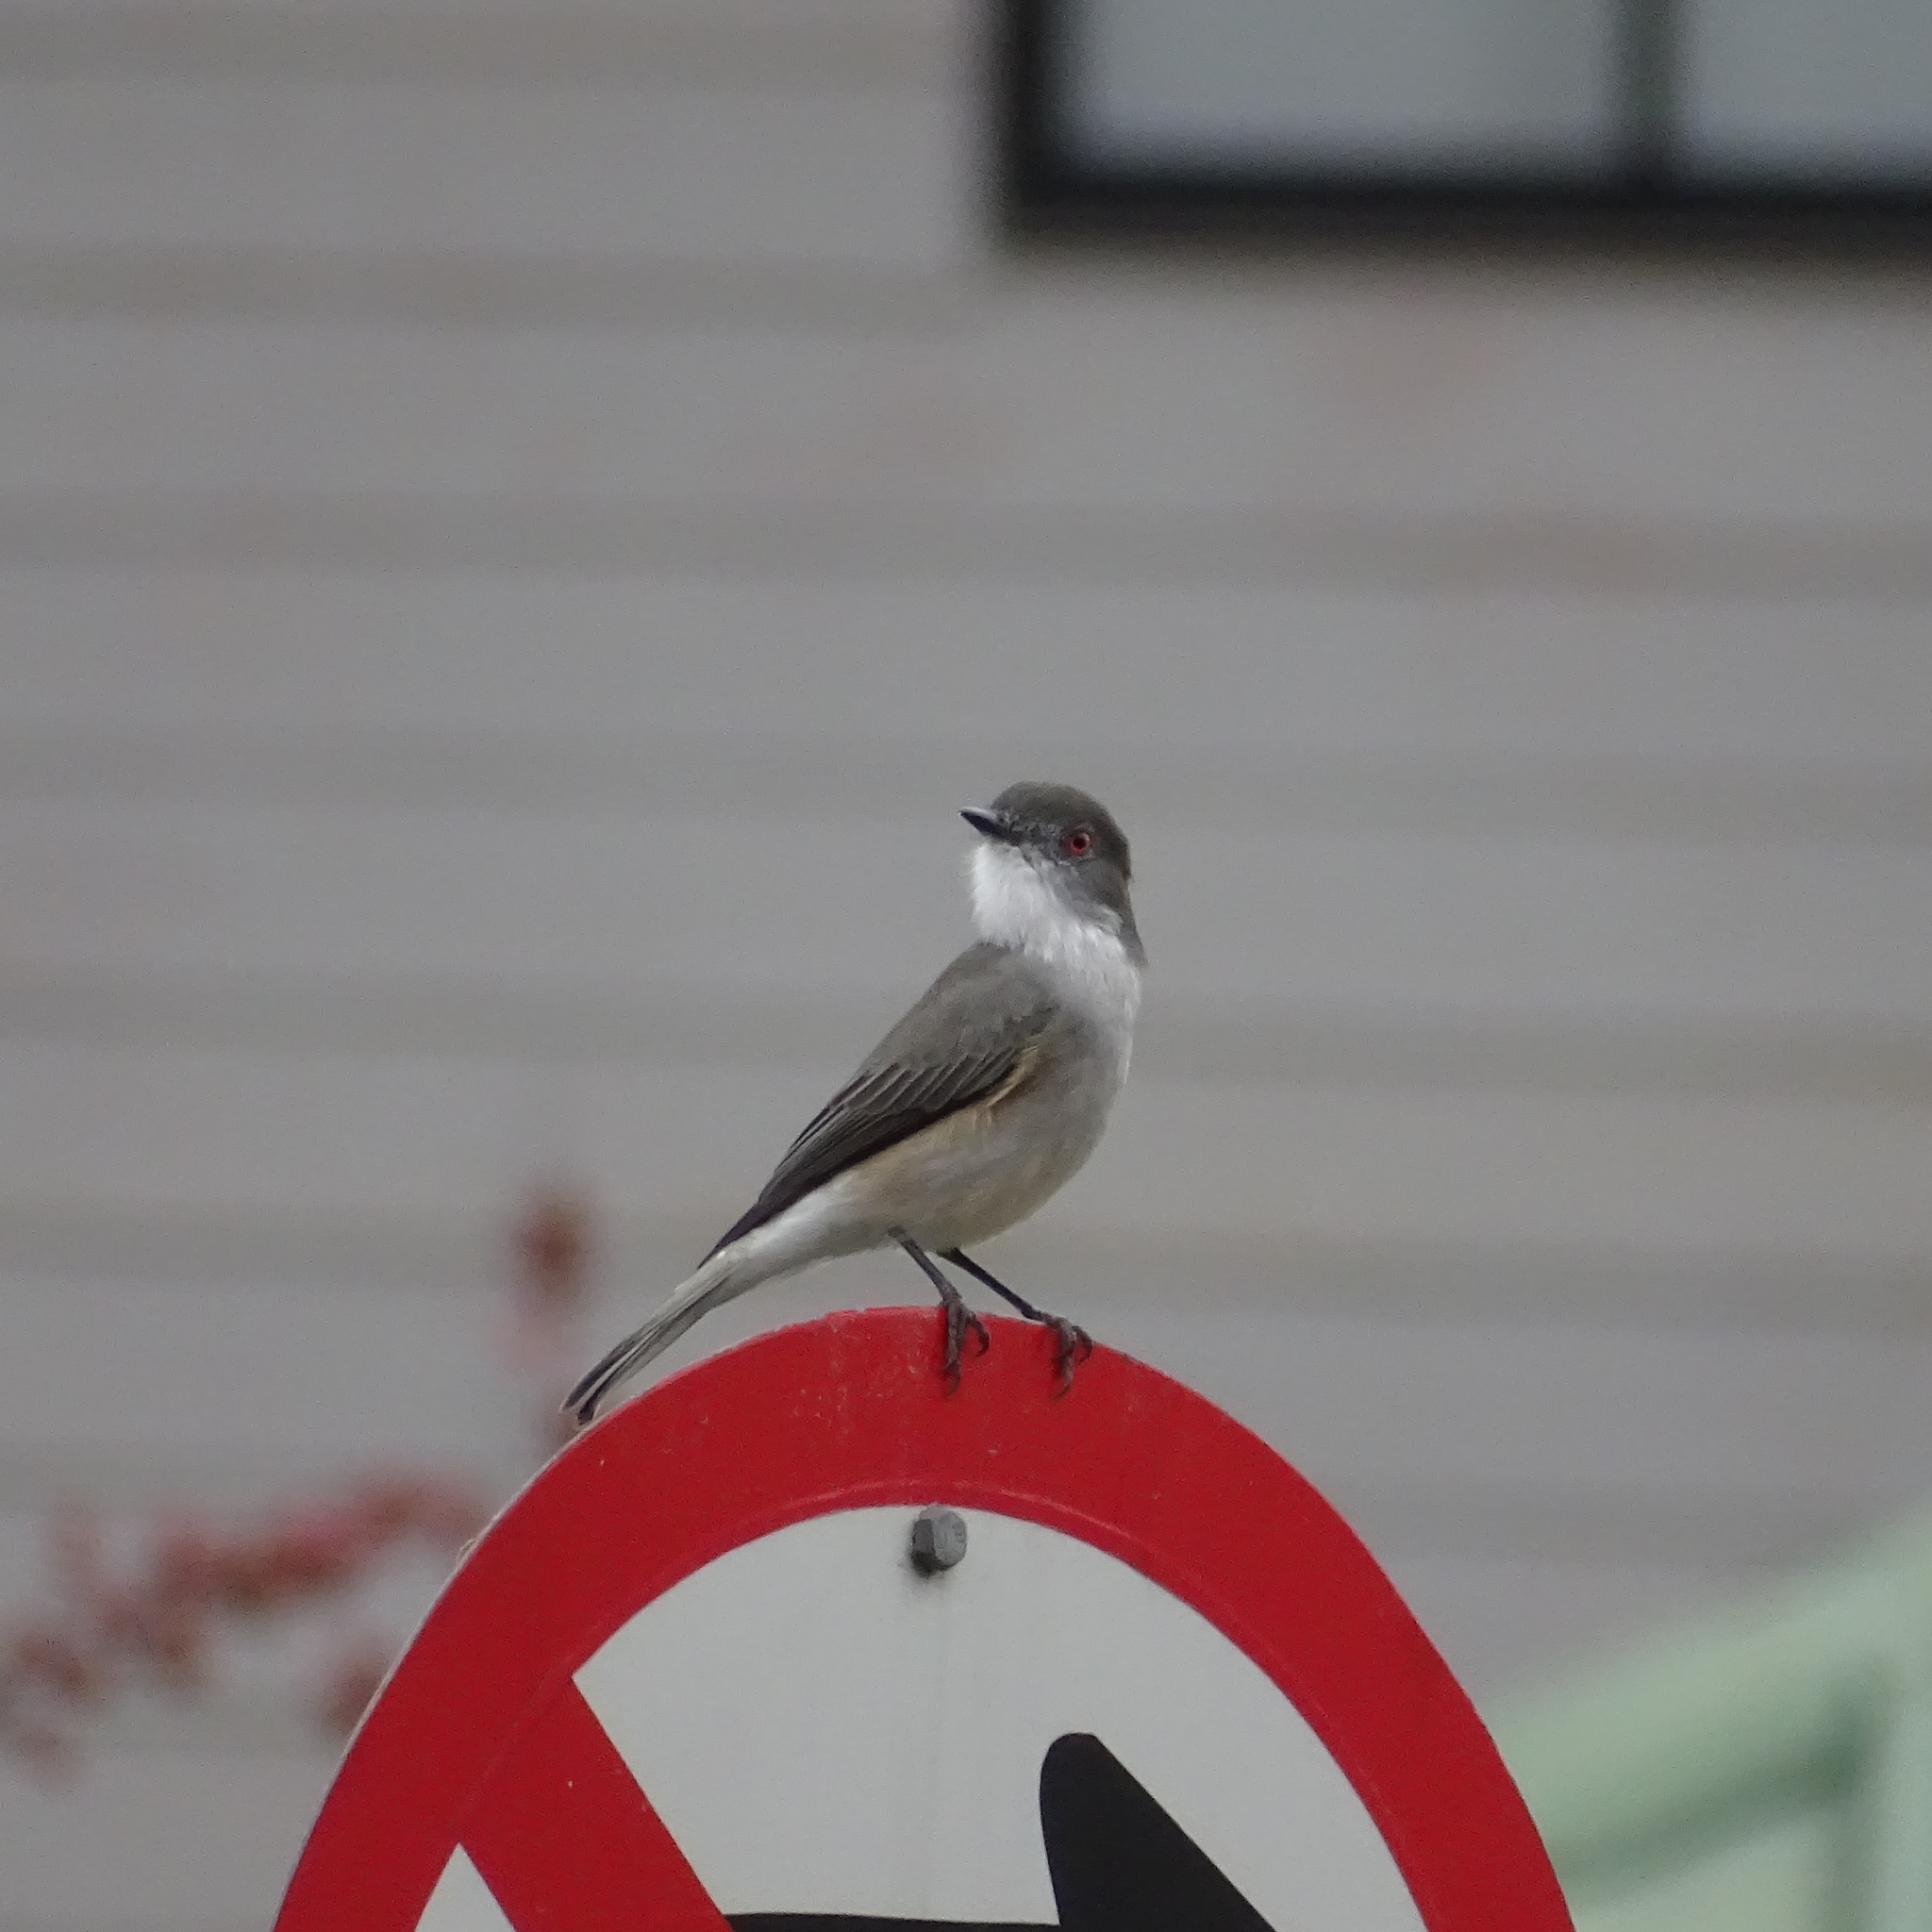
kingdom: Animalia
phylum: Chordata
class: Aves
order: Passeriformes
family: Tyrannidae
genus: Xolmis
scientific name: Xolmis pyrope
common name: Fire-eyed diucon
